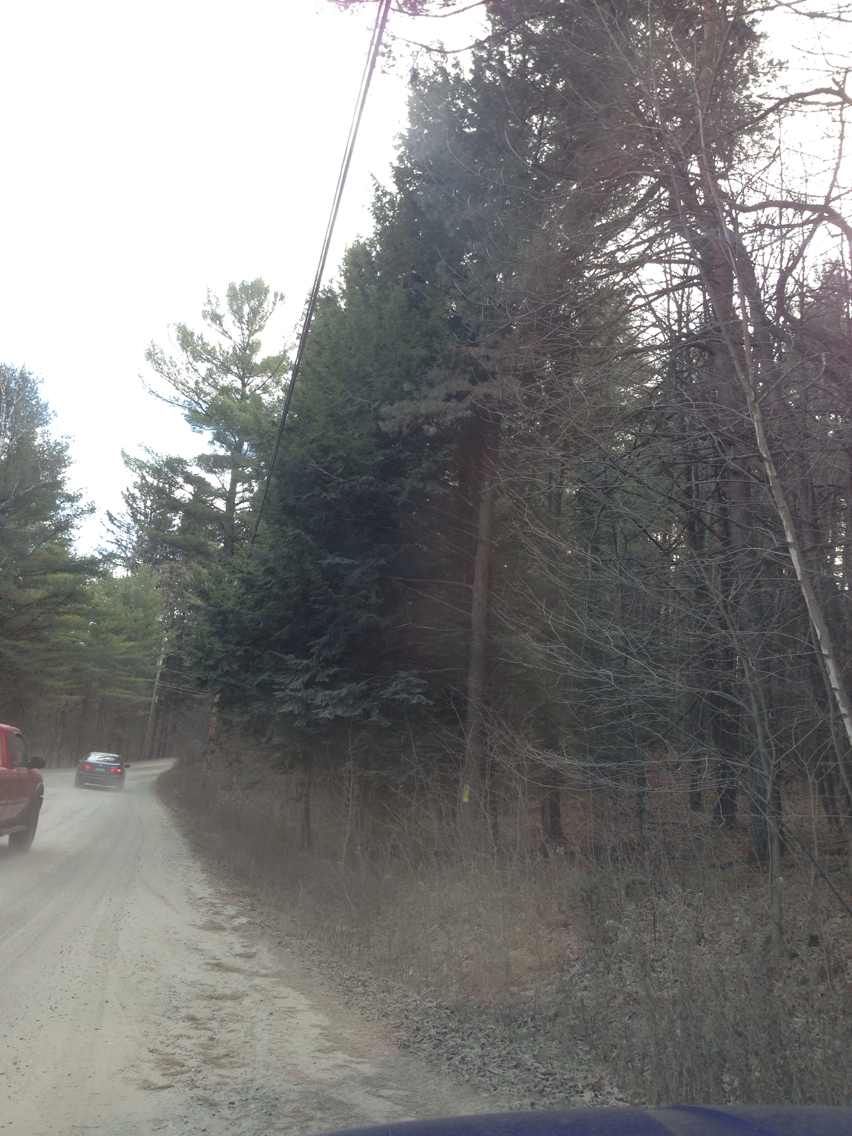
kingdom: Plantae
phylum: Tracheophyta
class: Pinopsida
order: Pinales
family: Pinaceae
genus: Tsuga
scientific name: Tsuga canadensis
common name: Eastern hemlock
